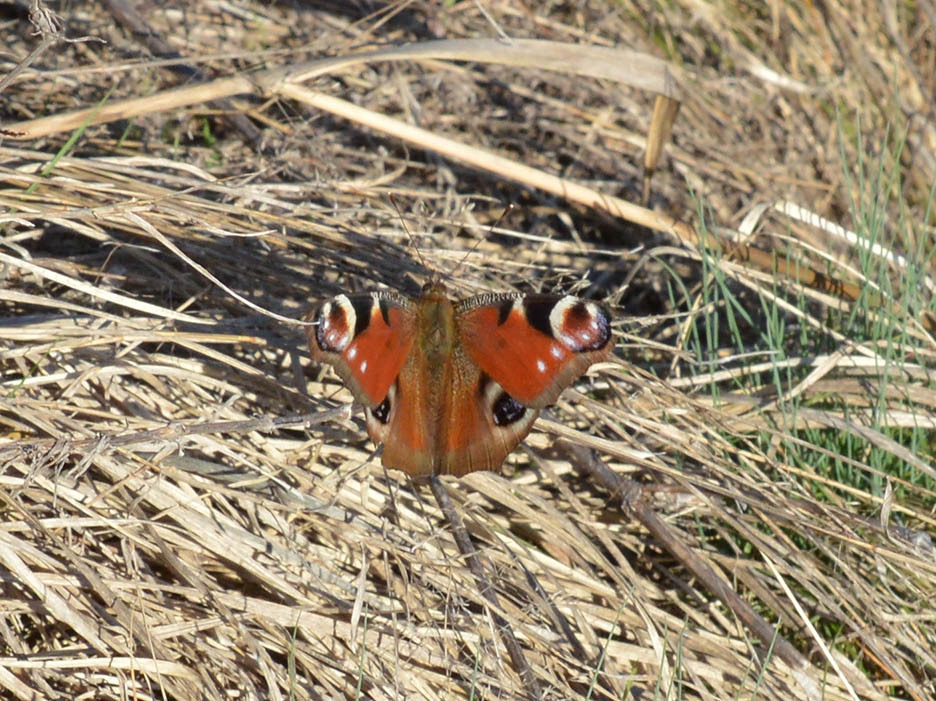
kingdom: Animalia
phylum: Arthropoda
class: Insecta
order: Lepidoptera
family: Nymphalidae
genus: Aglais
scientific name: Aglais io
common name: Peacock
